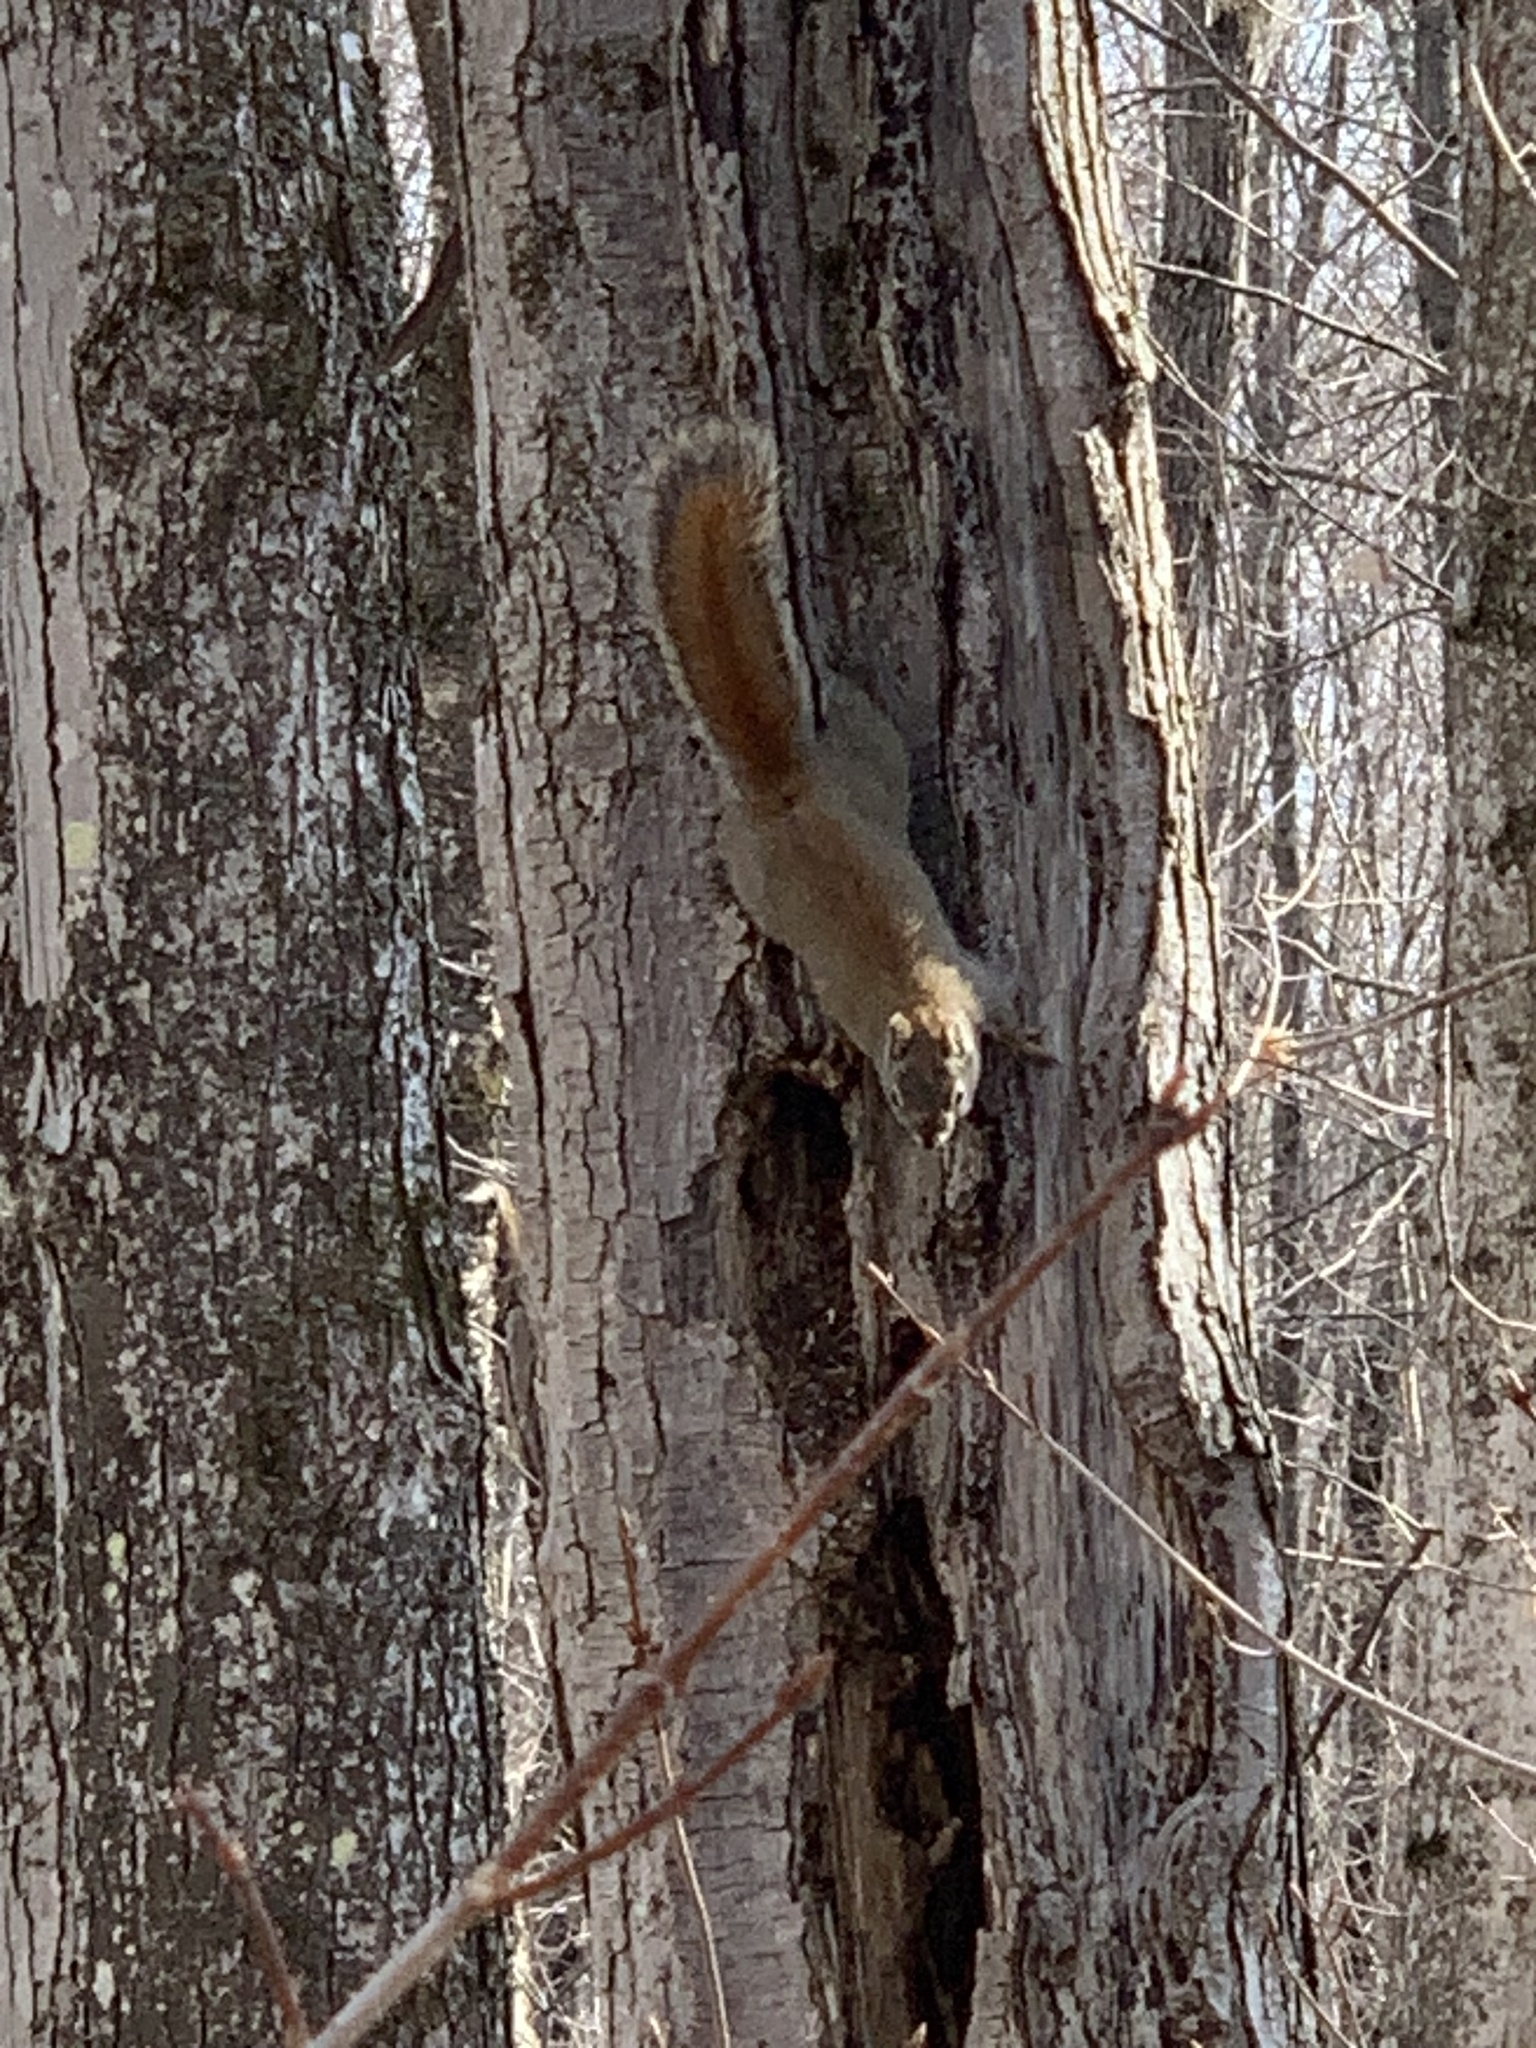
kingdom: Animalia
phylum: Chordata
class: Mammalia
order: Rodentia
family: Sciuridae
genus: Tamiasciurus
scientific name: Tamiasciurus hudsonicus
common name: Red squirrel
